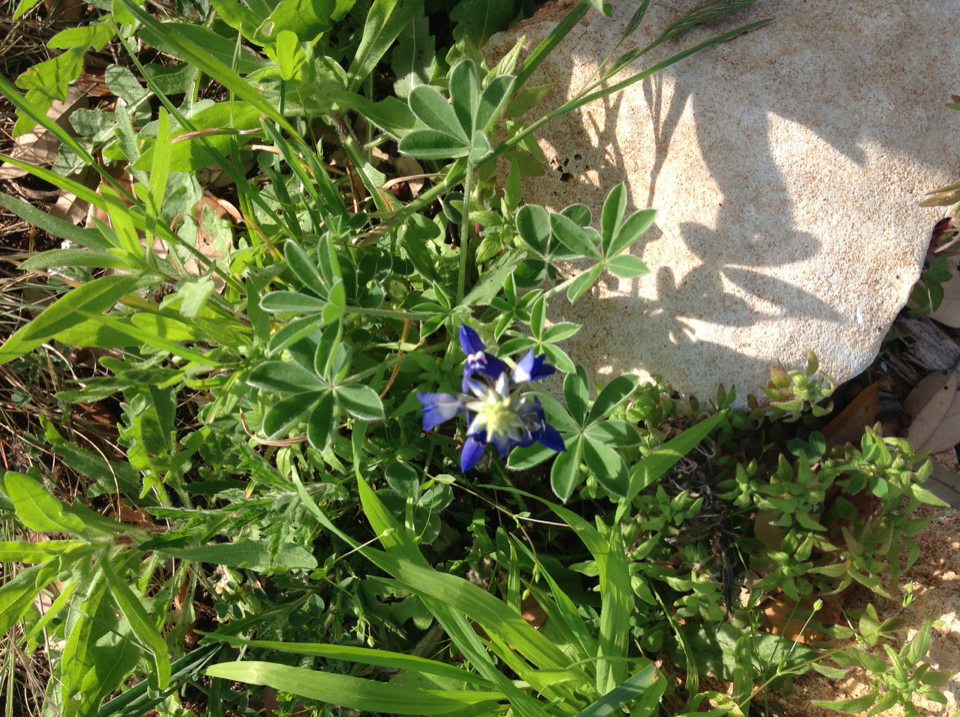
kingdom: Plantae
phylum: Tracheophyta
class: Magnoliopsida
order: Fabales
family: Fabaceae
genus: Lupinus
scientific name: Lupinus texensis
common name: Texas bluebonnet
